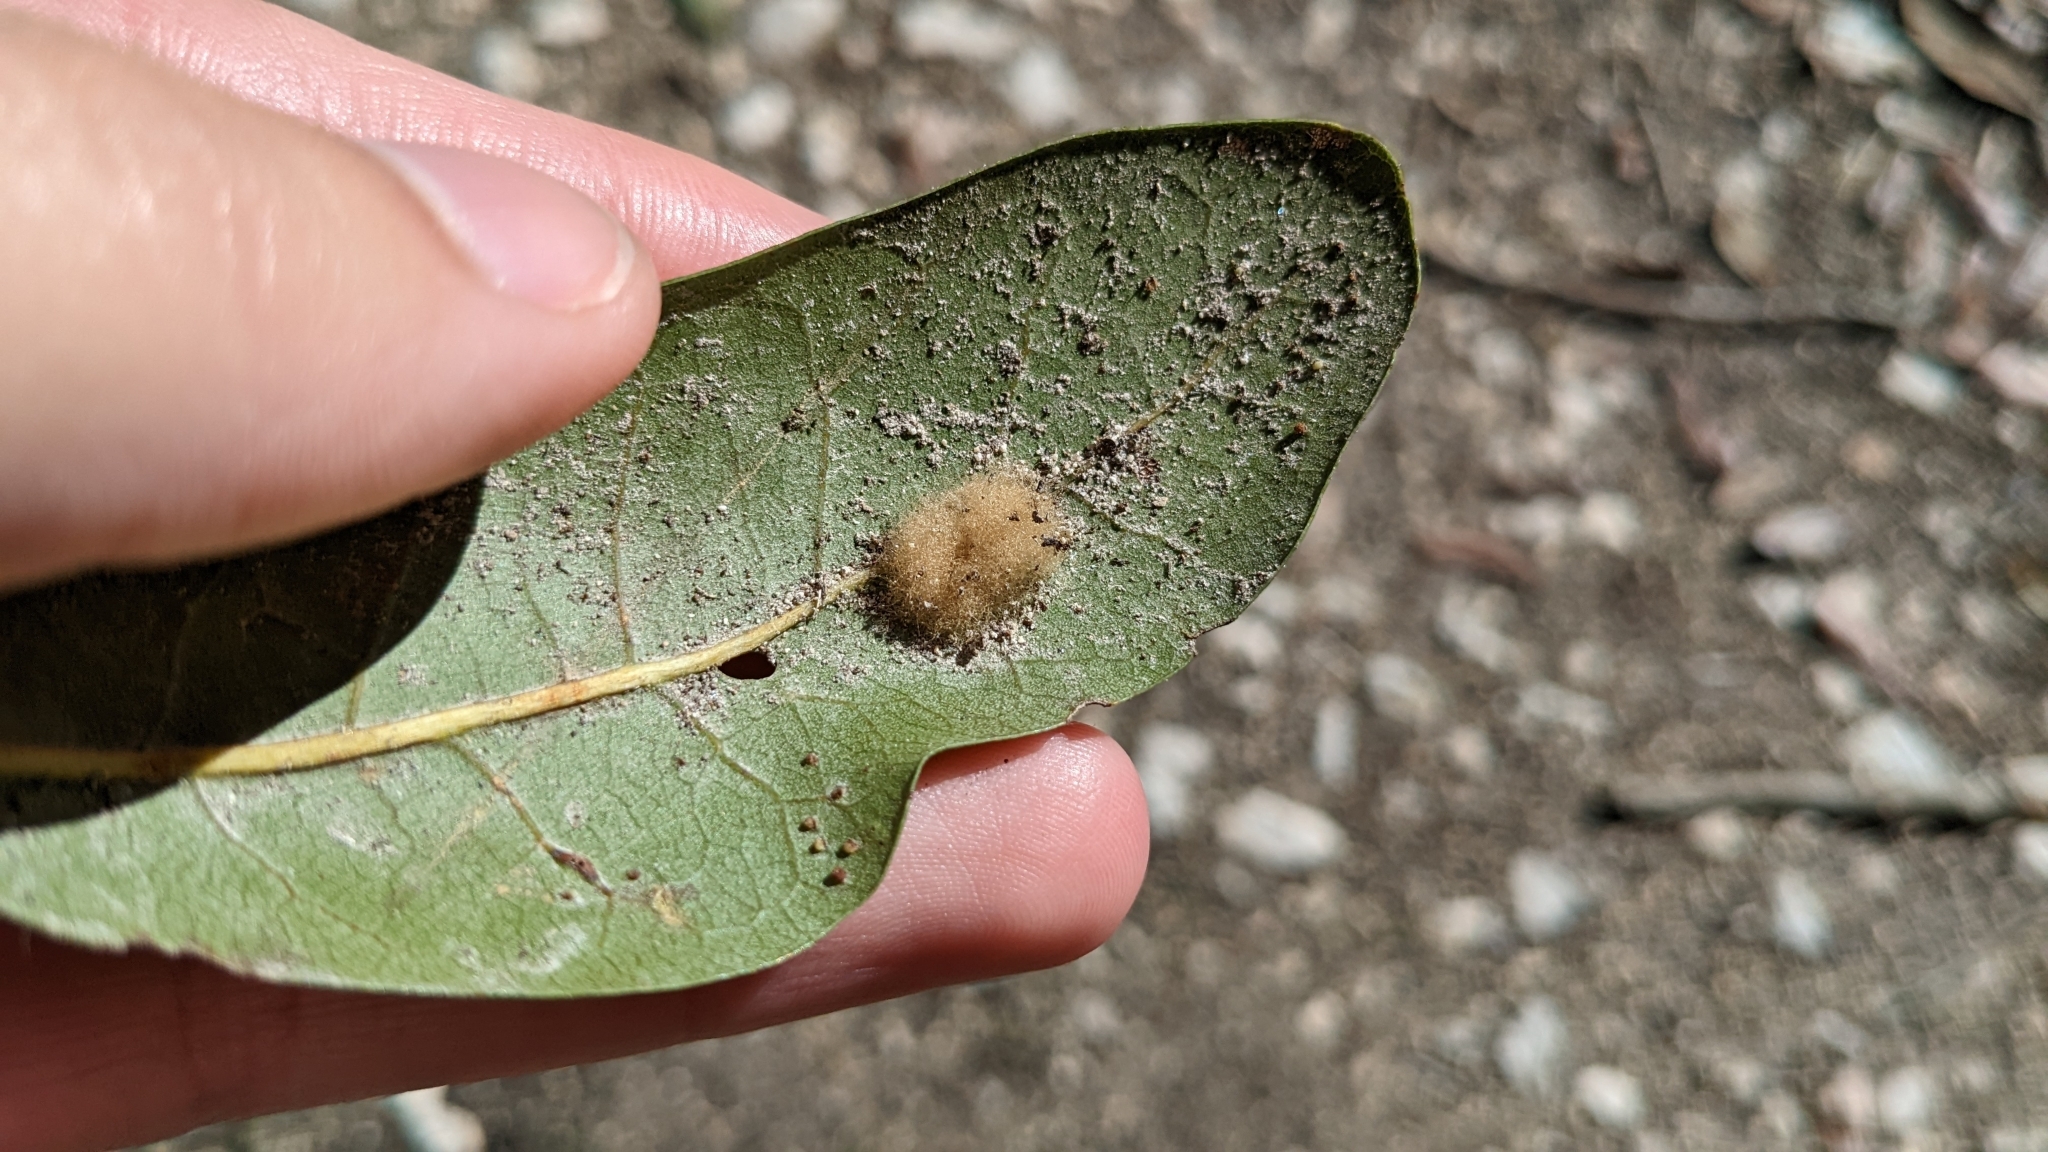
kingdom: Animalia
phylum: Arthropoda
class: Insecta
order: Hymenoptera
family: Cynipidae
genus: Andricus
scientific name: Andricus Druon quercuslanigerum
